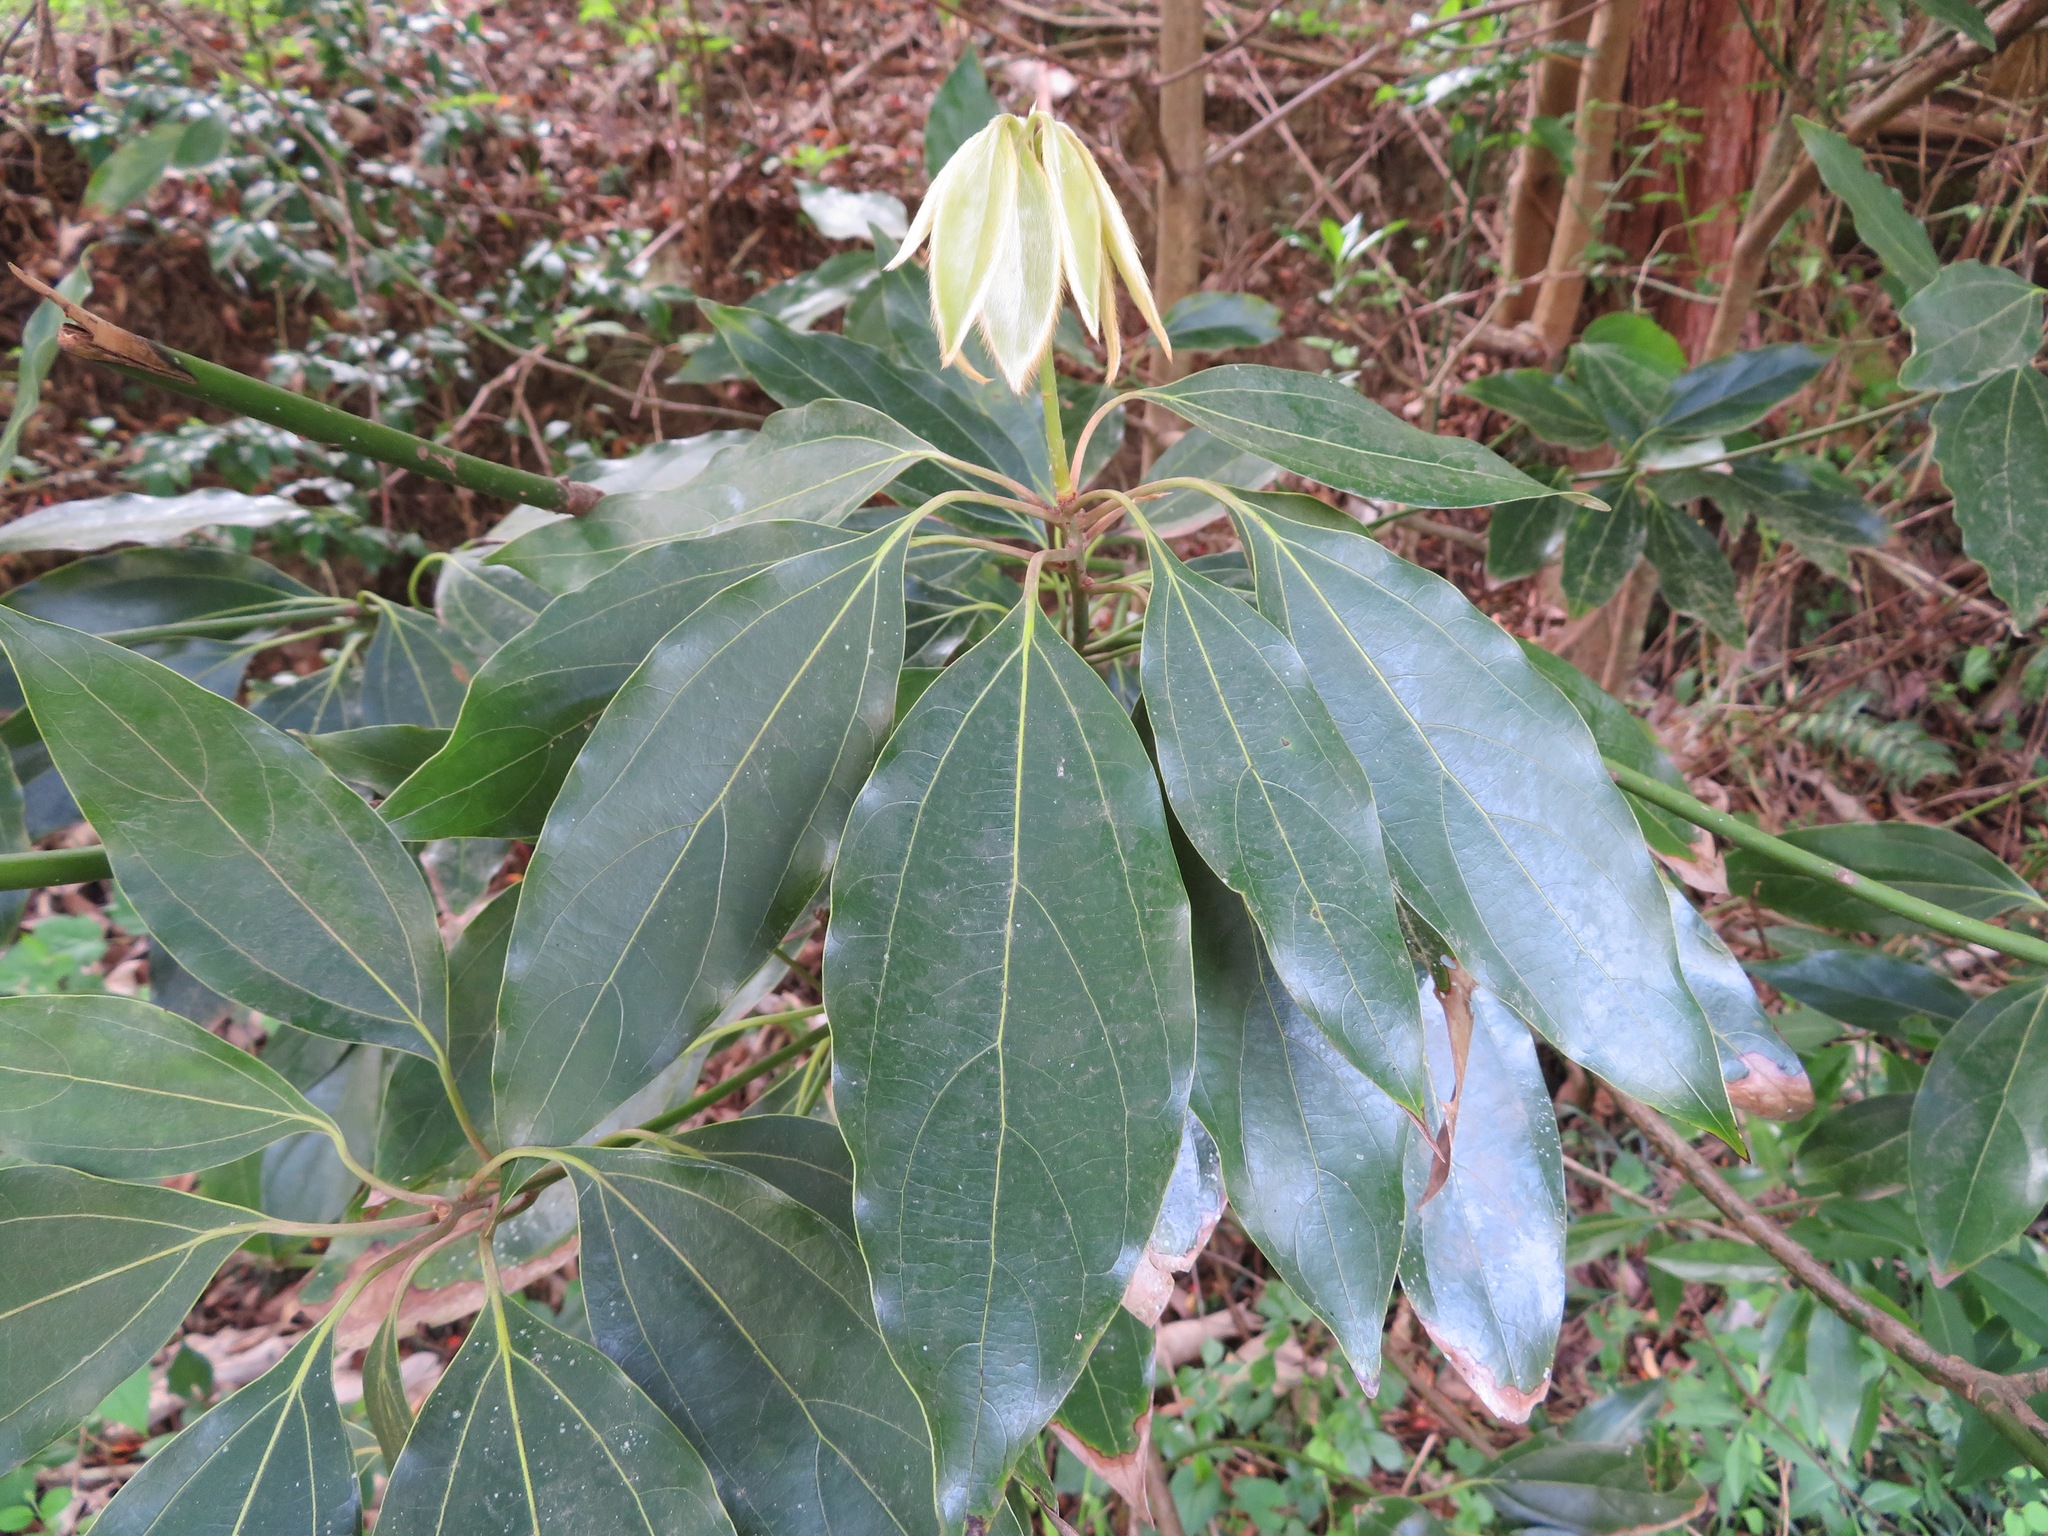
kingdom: Plantae
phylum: Tracheophyta
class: Magnoliopsida
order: Laurales
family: Lauraceae
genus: Neolitsea
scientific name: Neolitsea sericea
